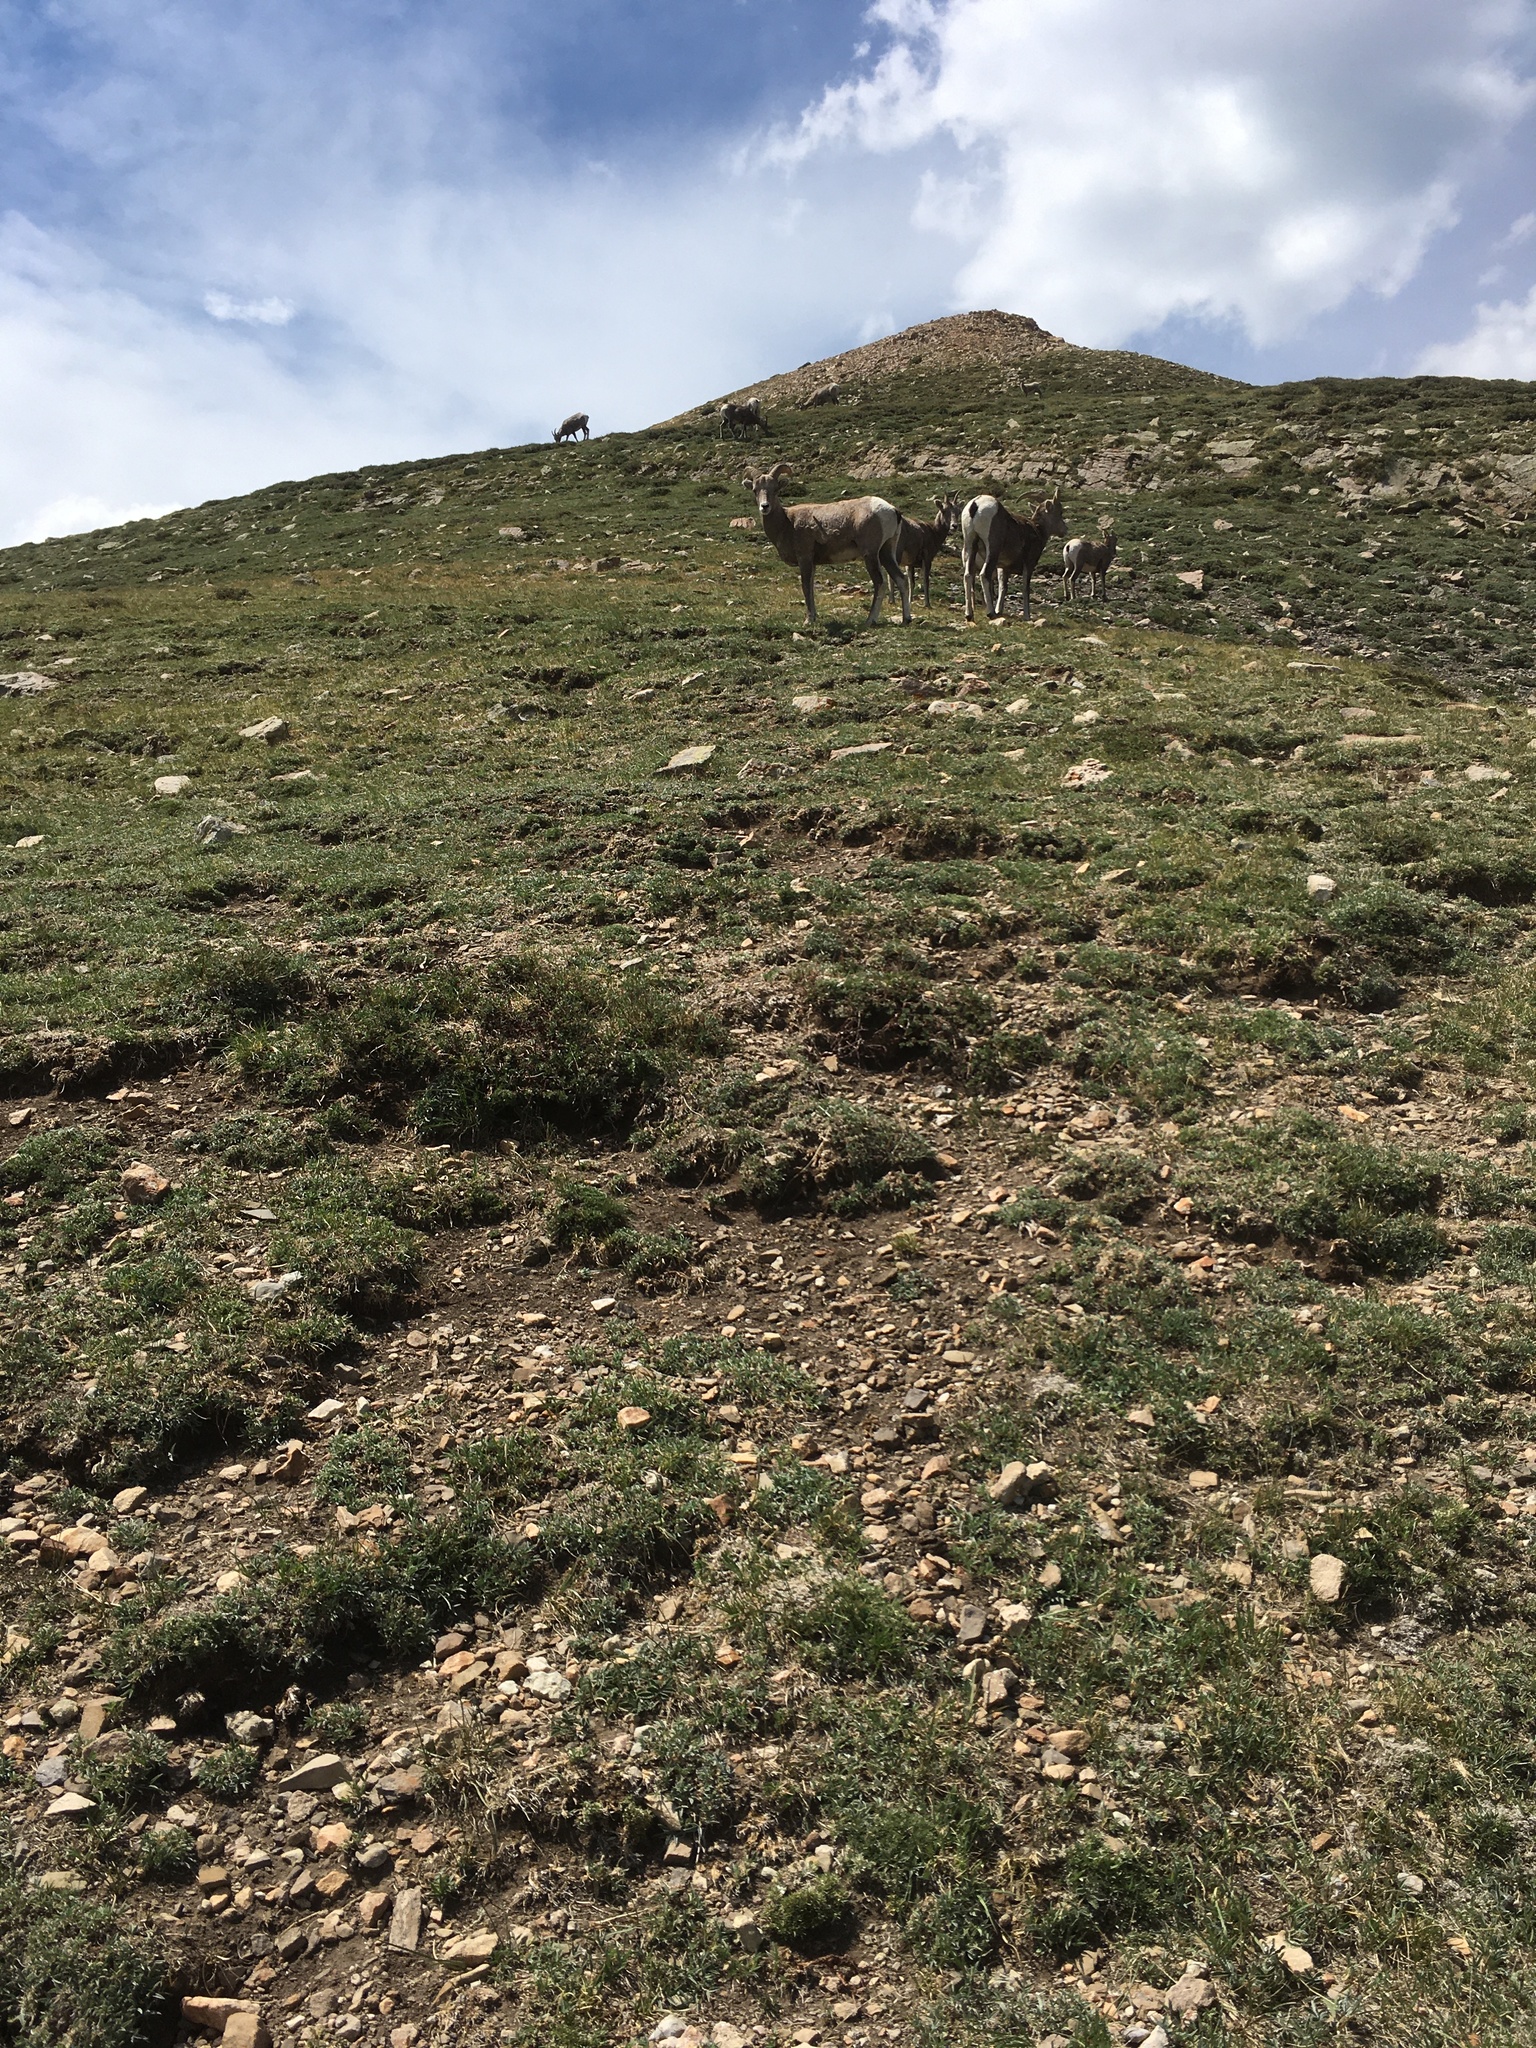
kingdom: Animalia
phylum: Chordata
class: Mammalia
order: Artiodactyla
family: Bovidae
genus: Ovis
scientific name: Ovis canadensis
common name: Bighorn sheep
